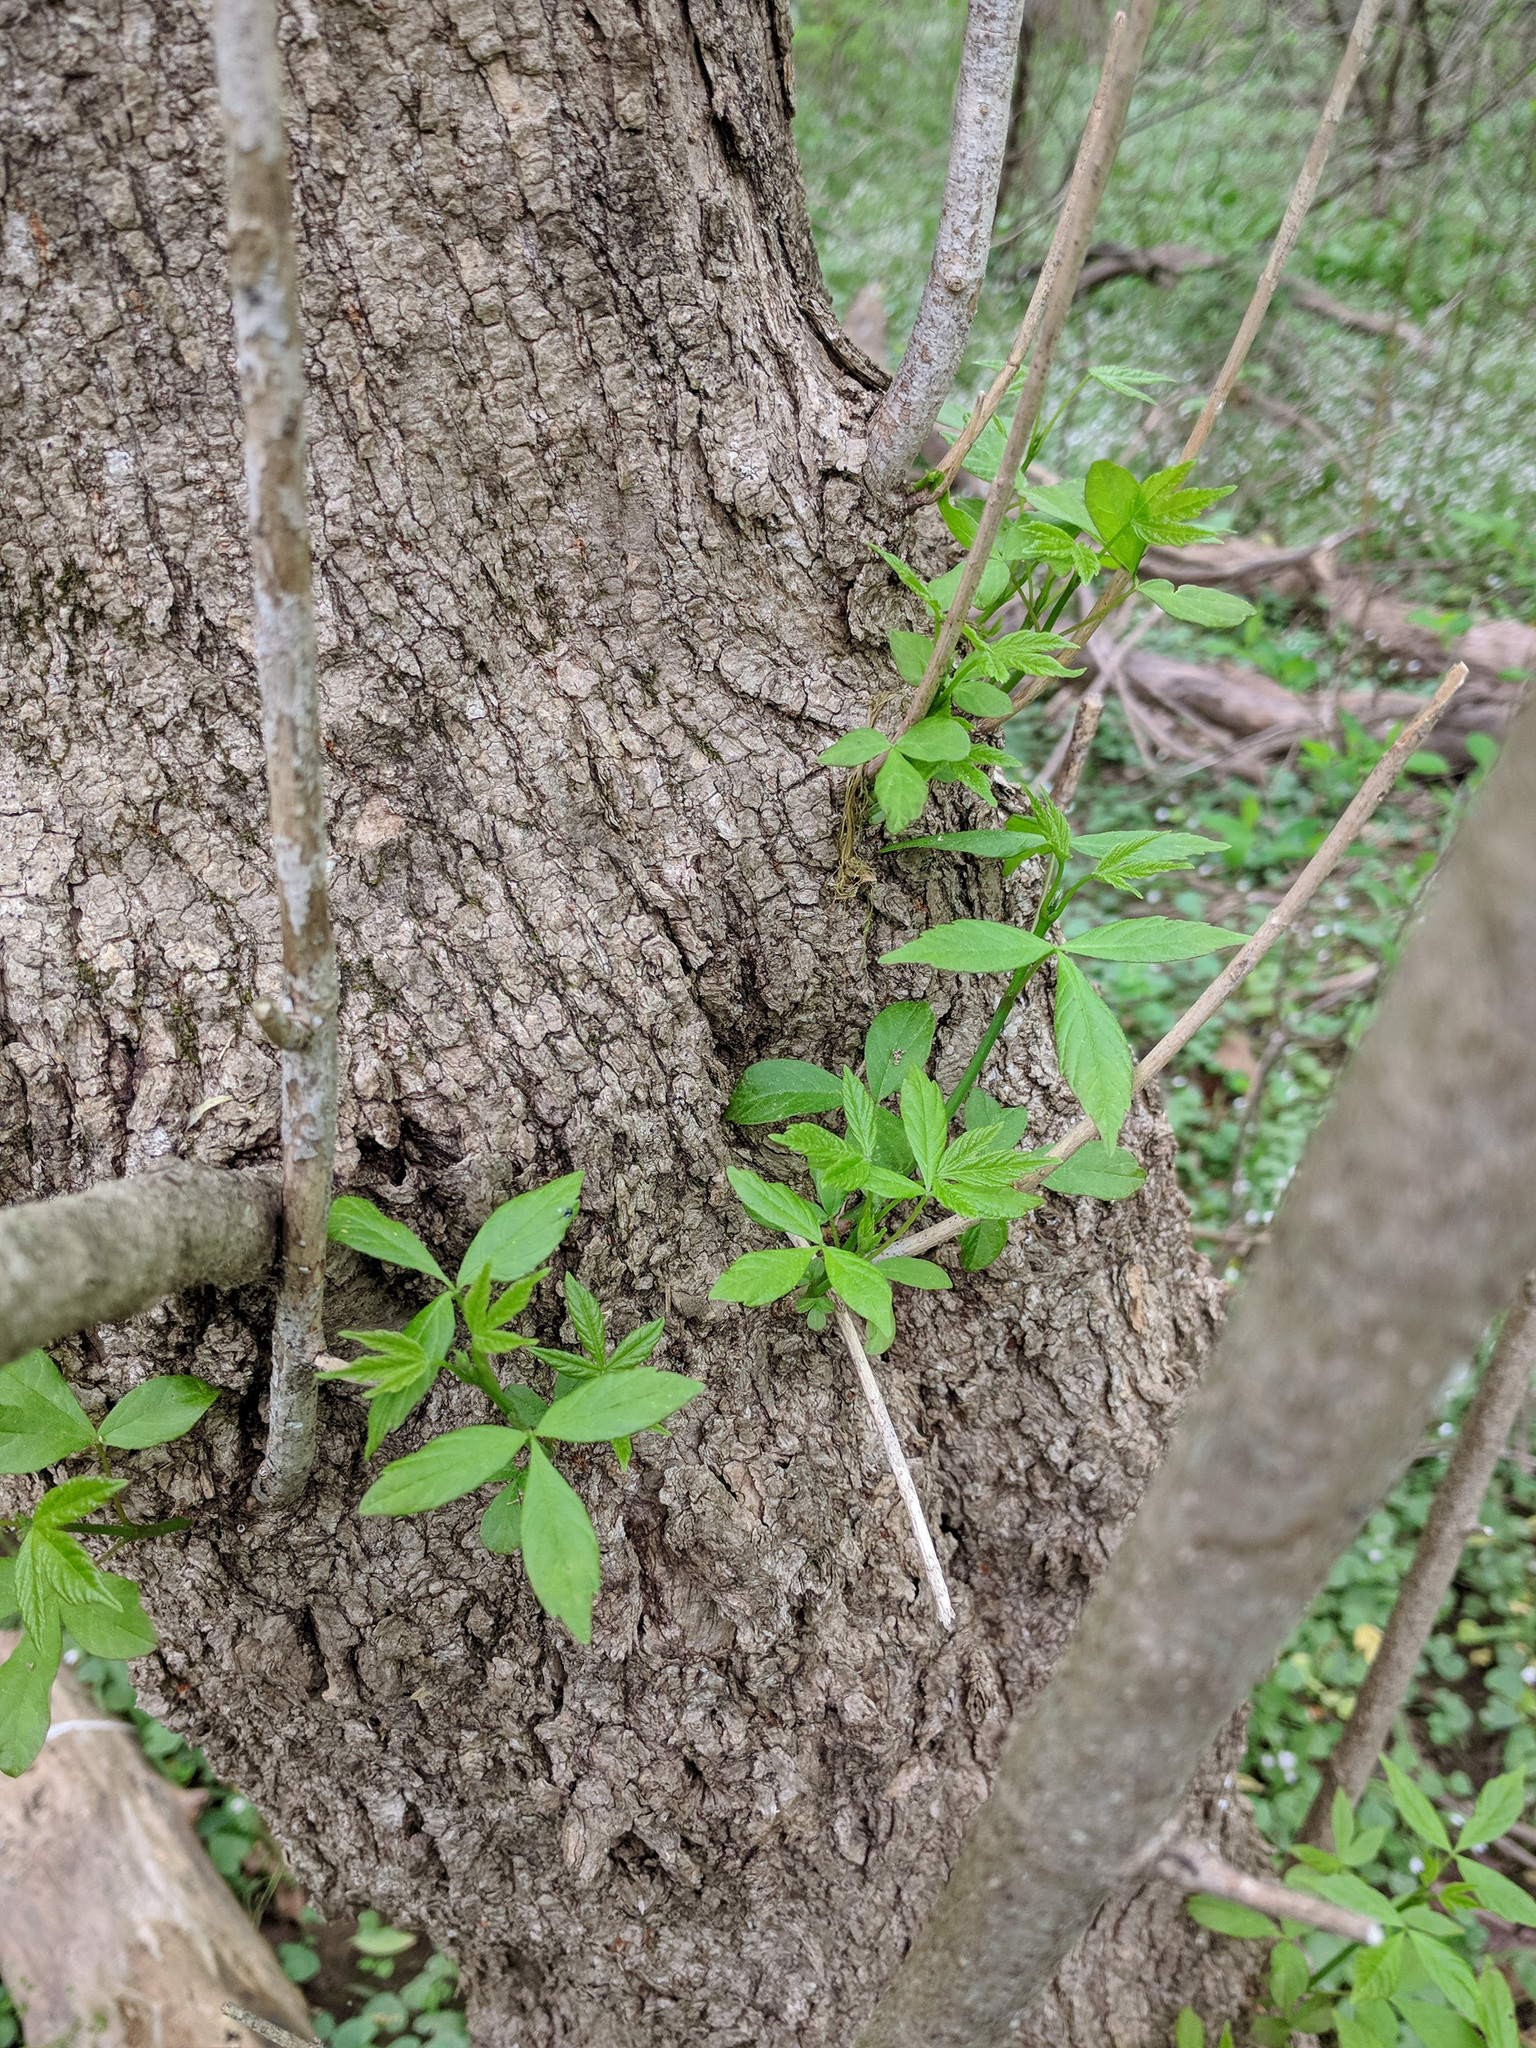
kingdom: Plantae
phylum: Tracheophyta
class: Magnoliopsida
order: Sapindales
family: Sapindaceae
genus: Acer
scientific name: Acer negundo
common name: Ashleaf maple
